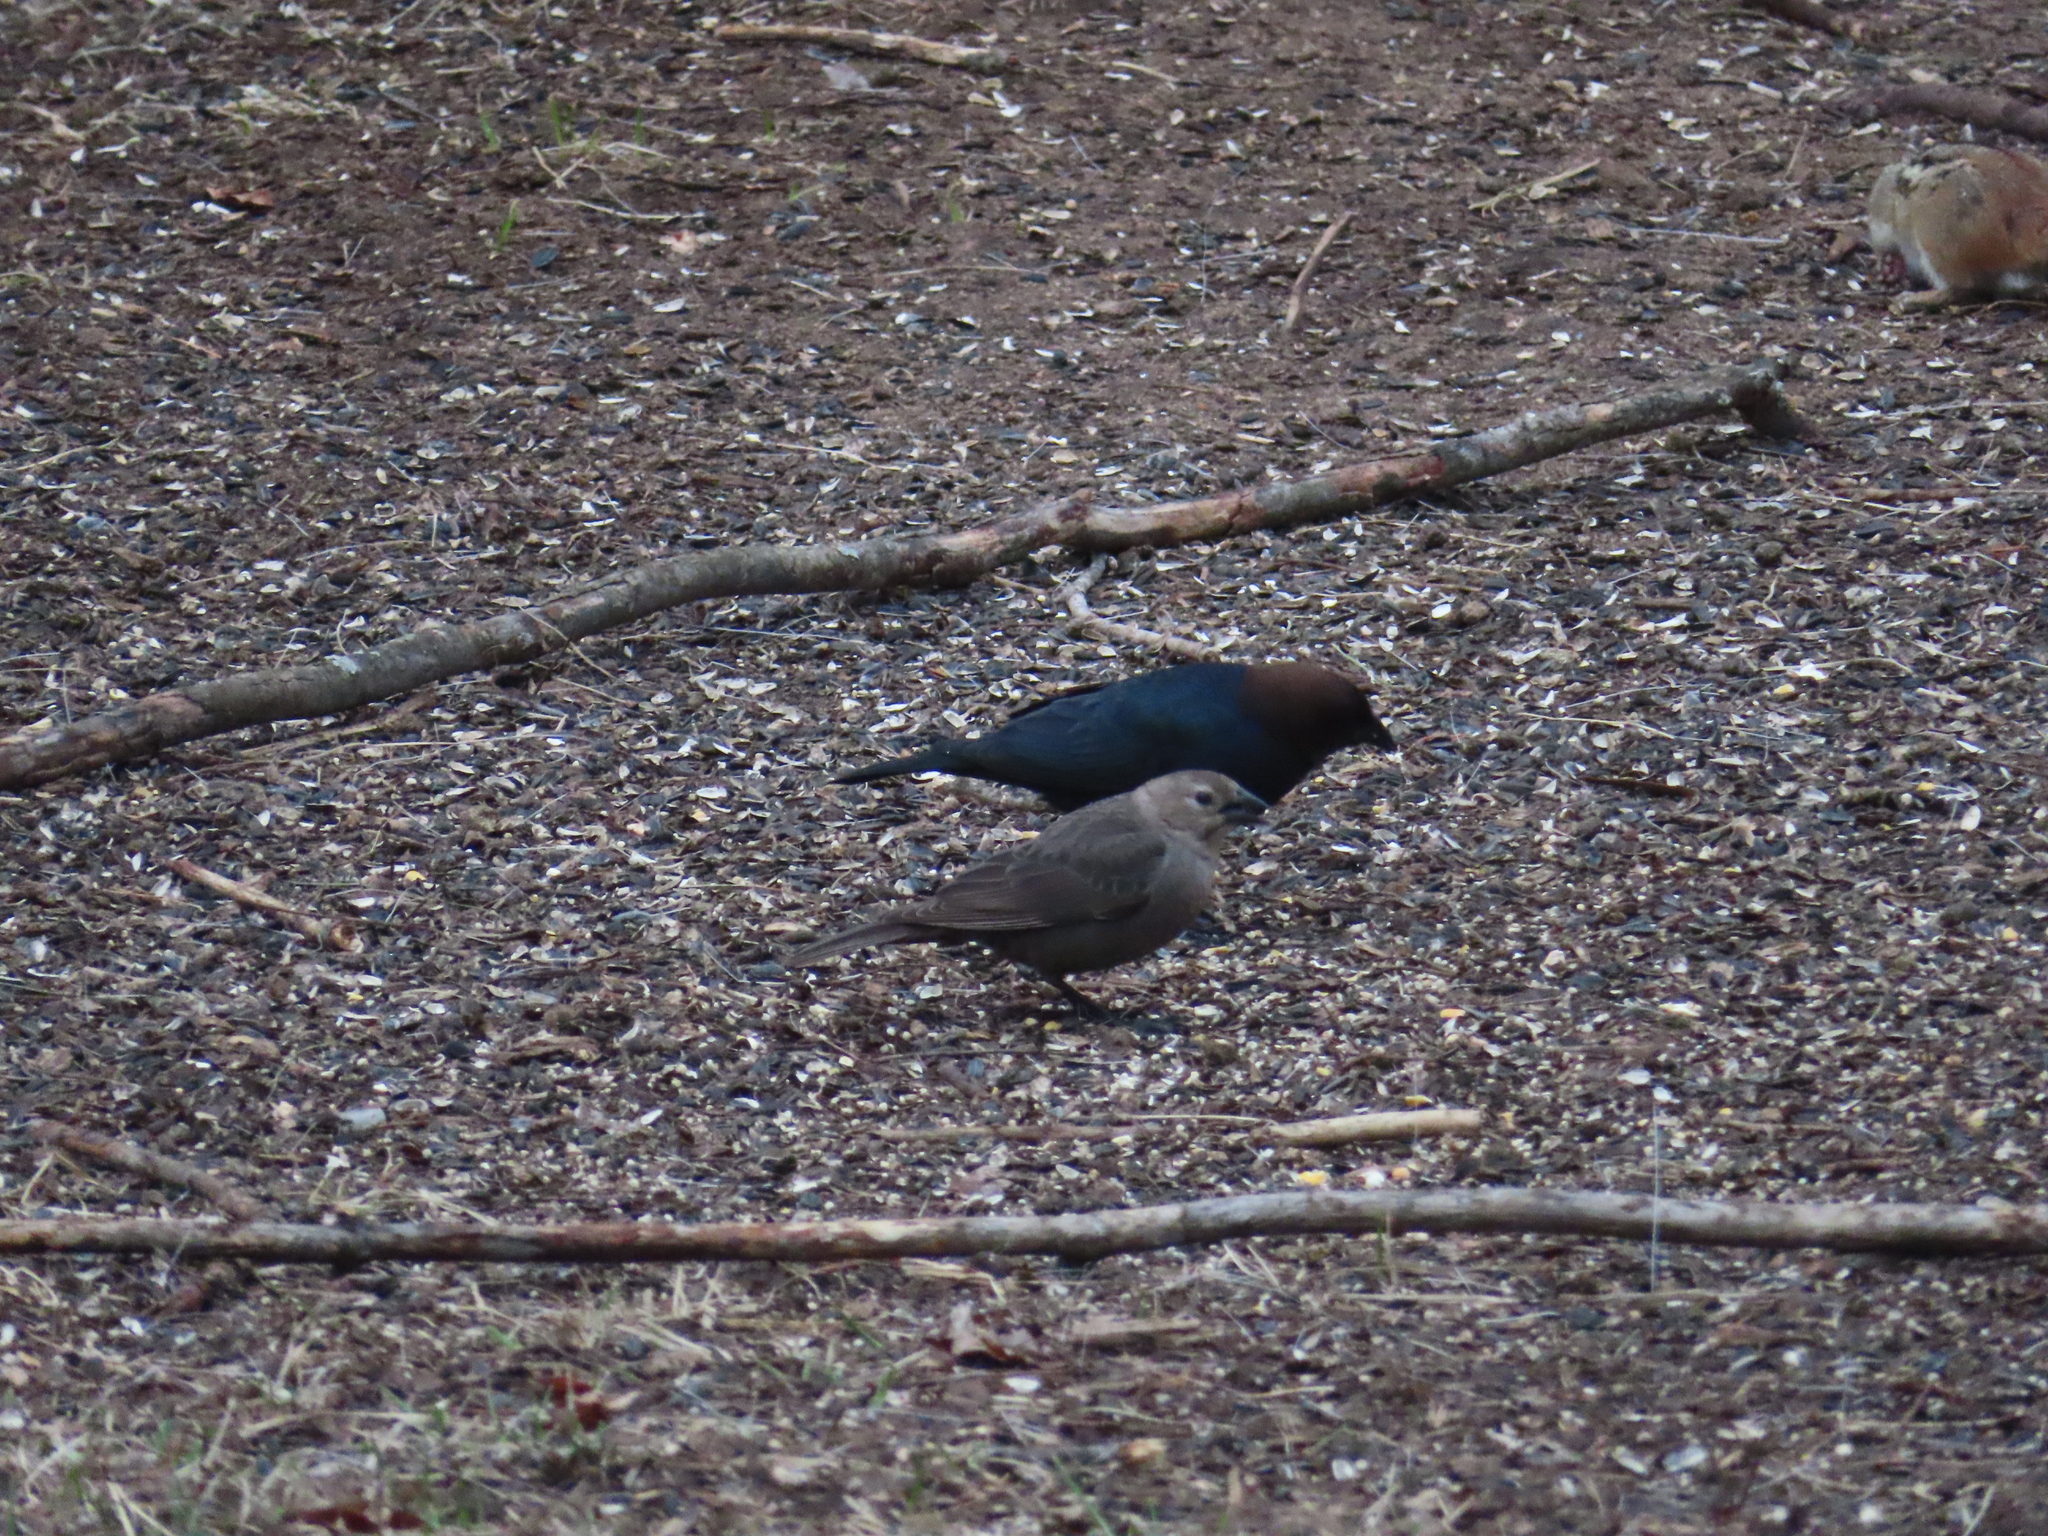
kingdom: Animalia
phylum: Chordata
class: Aves
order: Passeriformes
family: Icteridae
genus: Molothrus
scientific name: Molothrus ater
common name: Brown-headed cowbird
